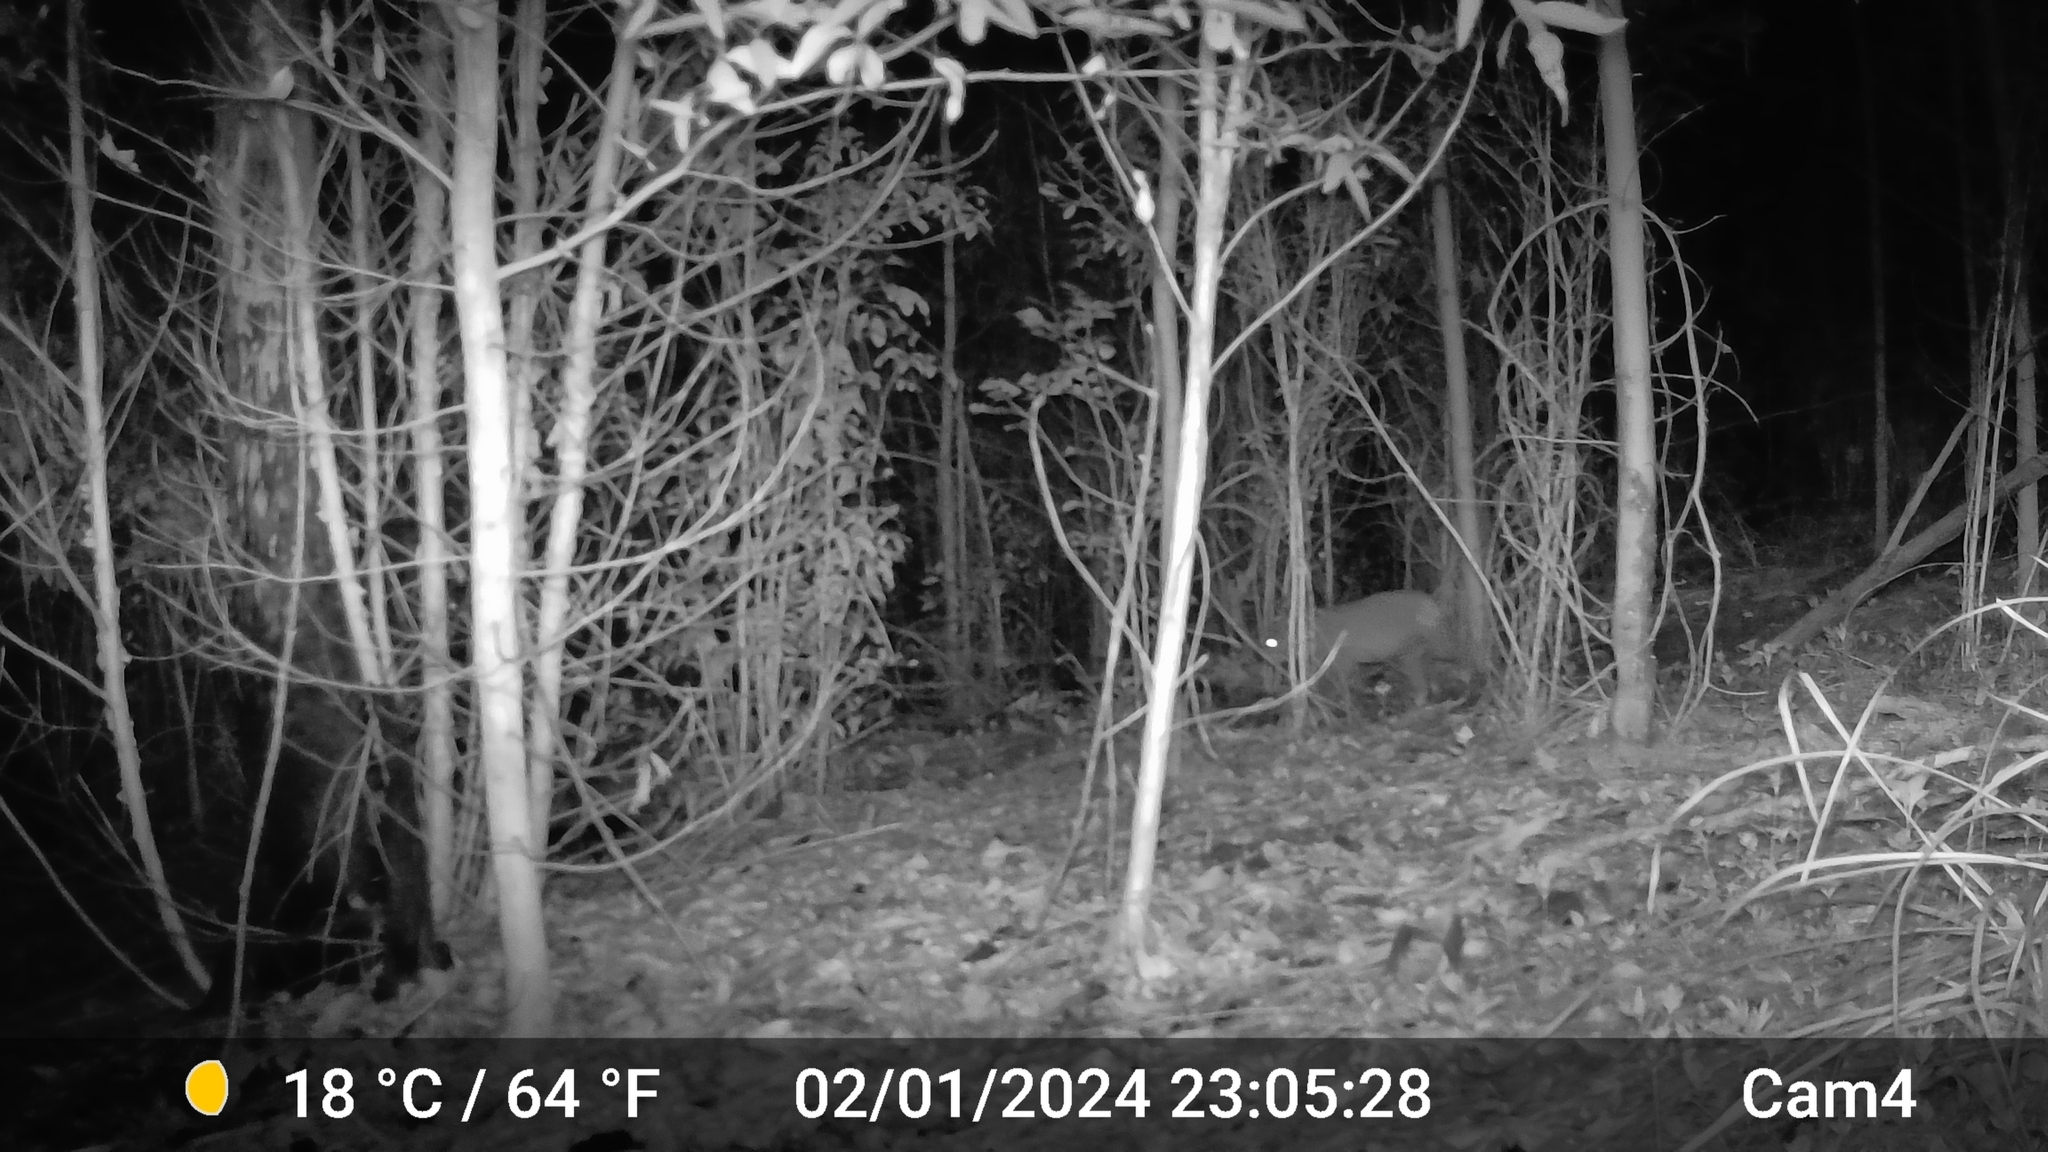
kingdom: Animalia
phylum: Chordata
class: Mammalia
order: Diprotodontia
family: Phascolarctidae
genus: Phascolarctos
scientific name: Phascolarctos cinereus
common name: Koala
